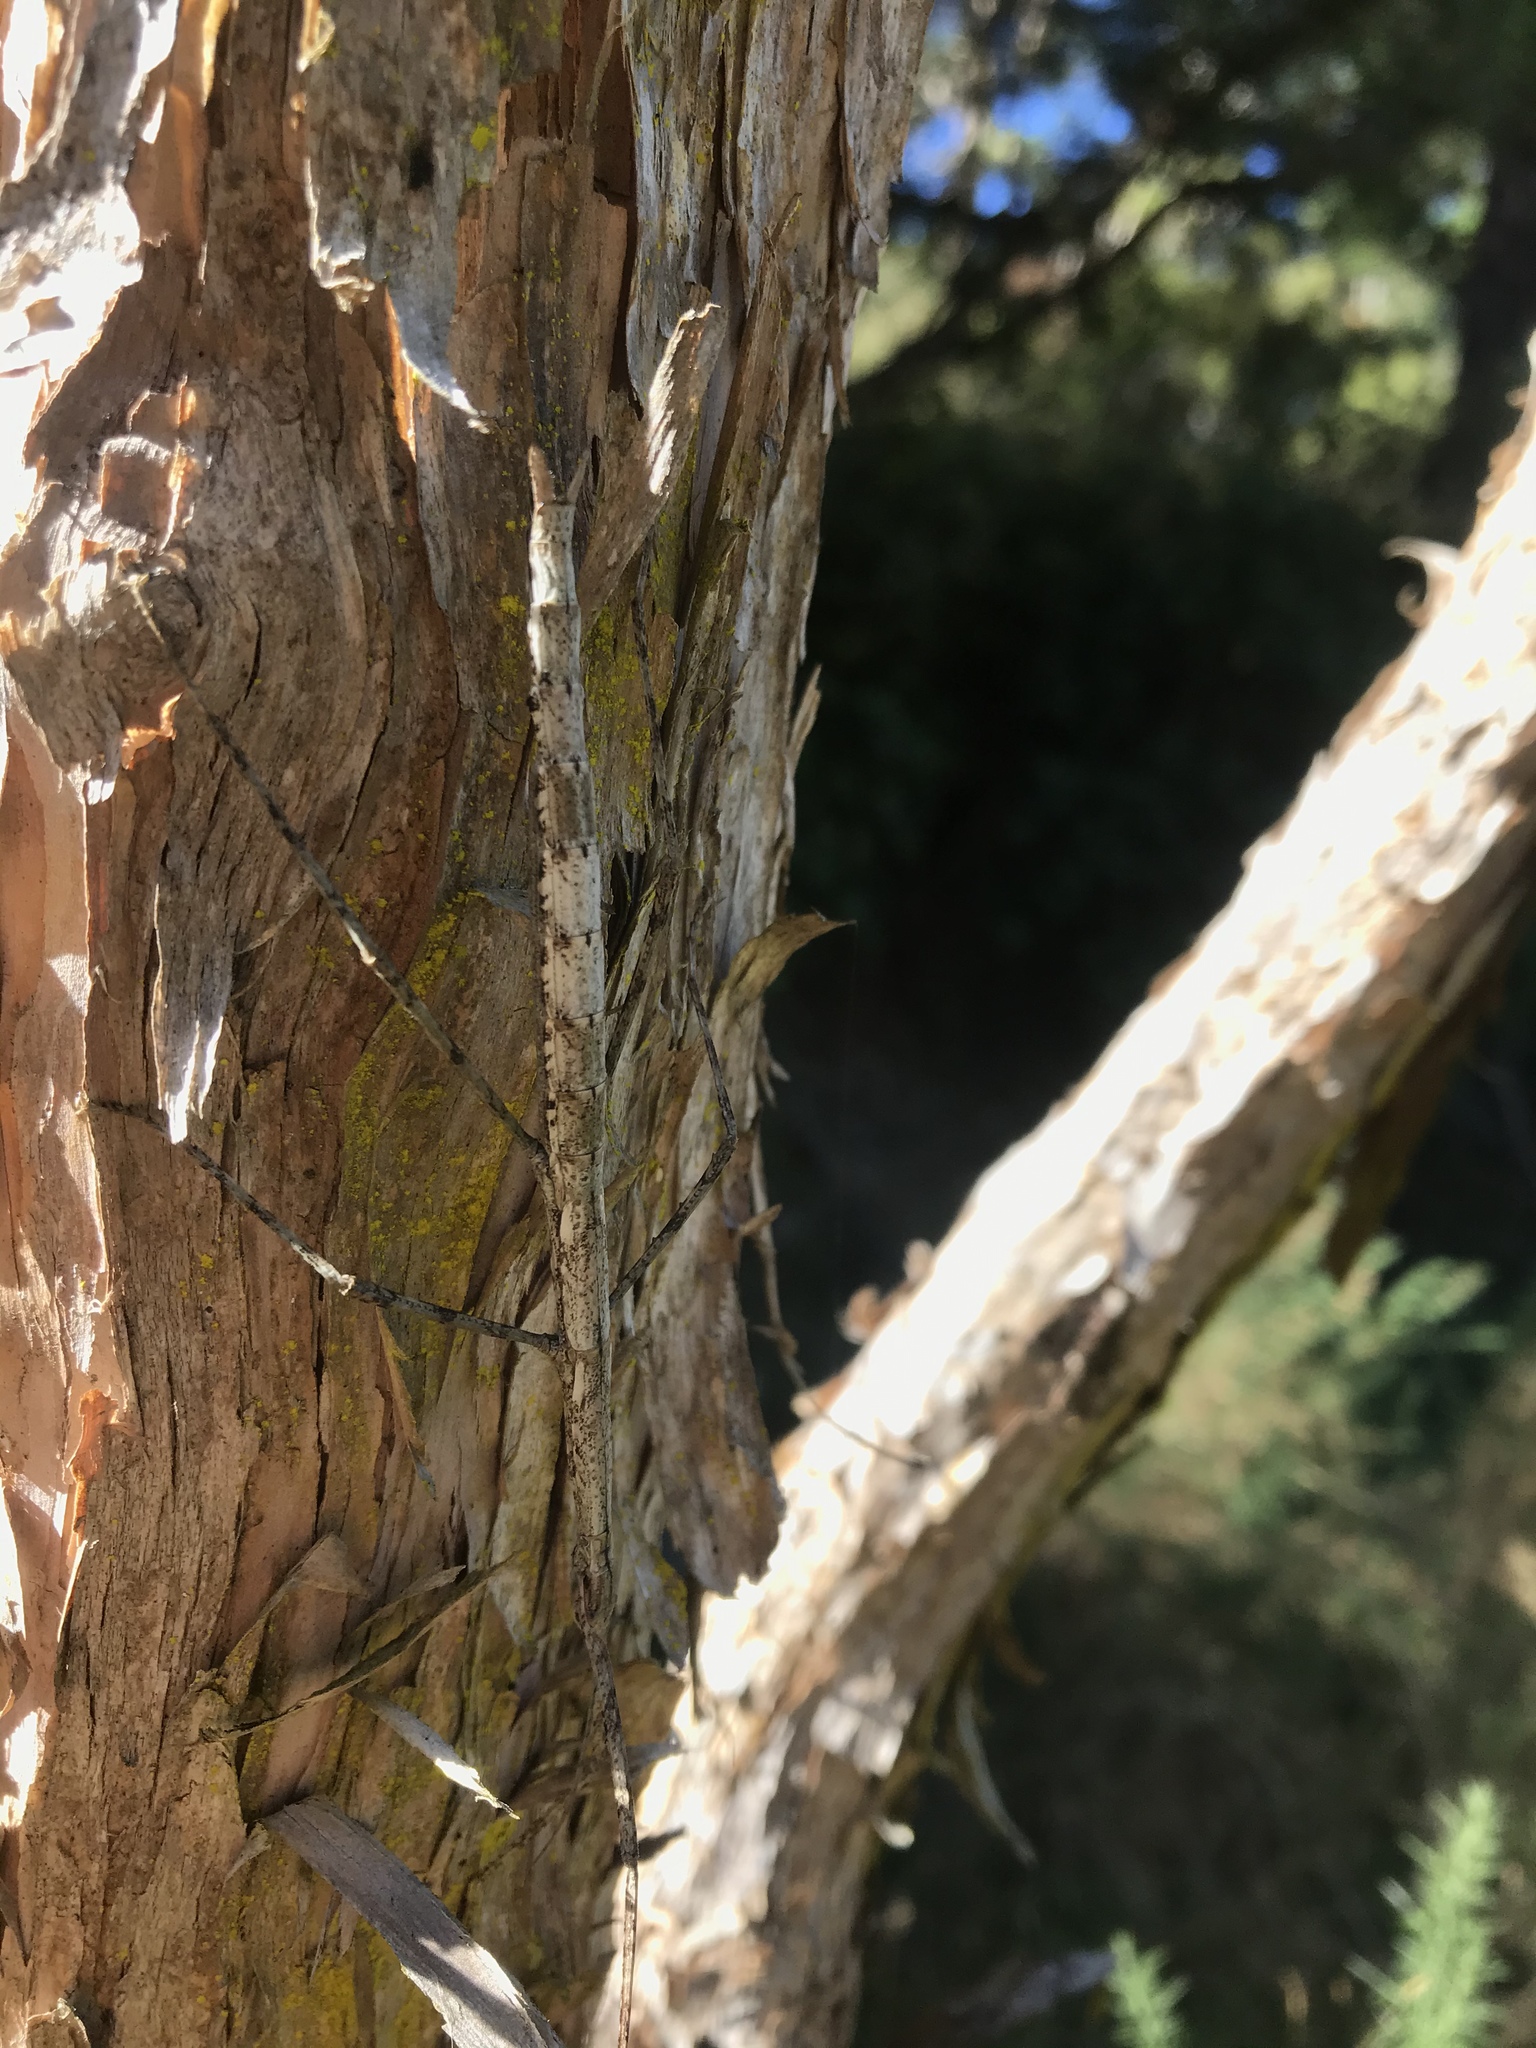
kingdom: Animalia
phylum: Arthropoda
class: Insecta
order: Phasmida
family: Phasmatidae
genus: Clitarchus
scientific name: Clitarchus hookeri
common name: Smooth stick insect
